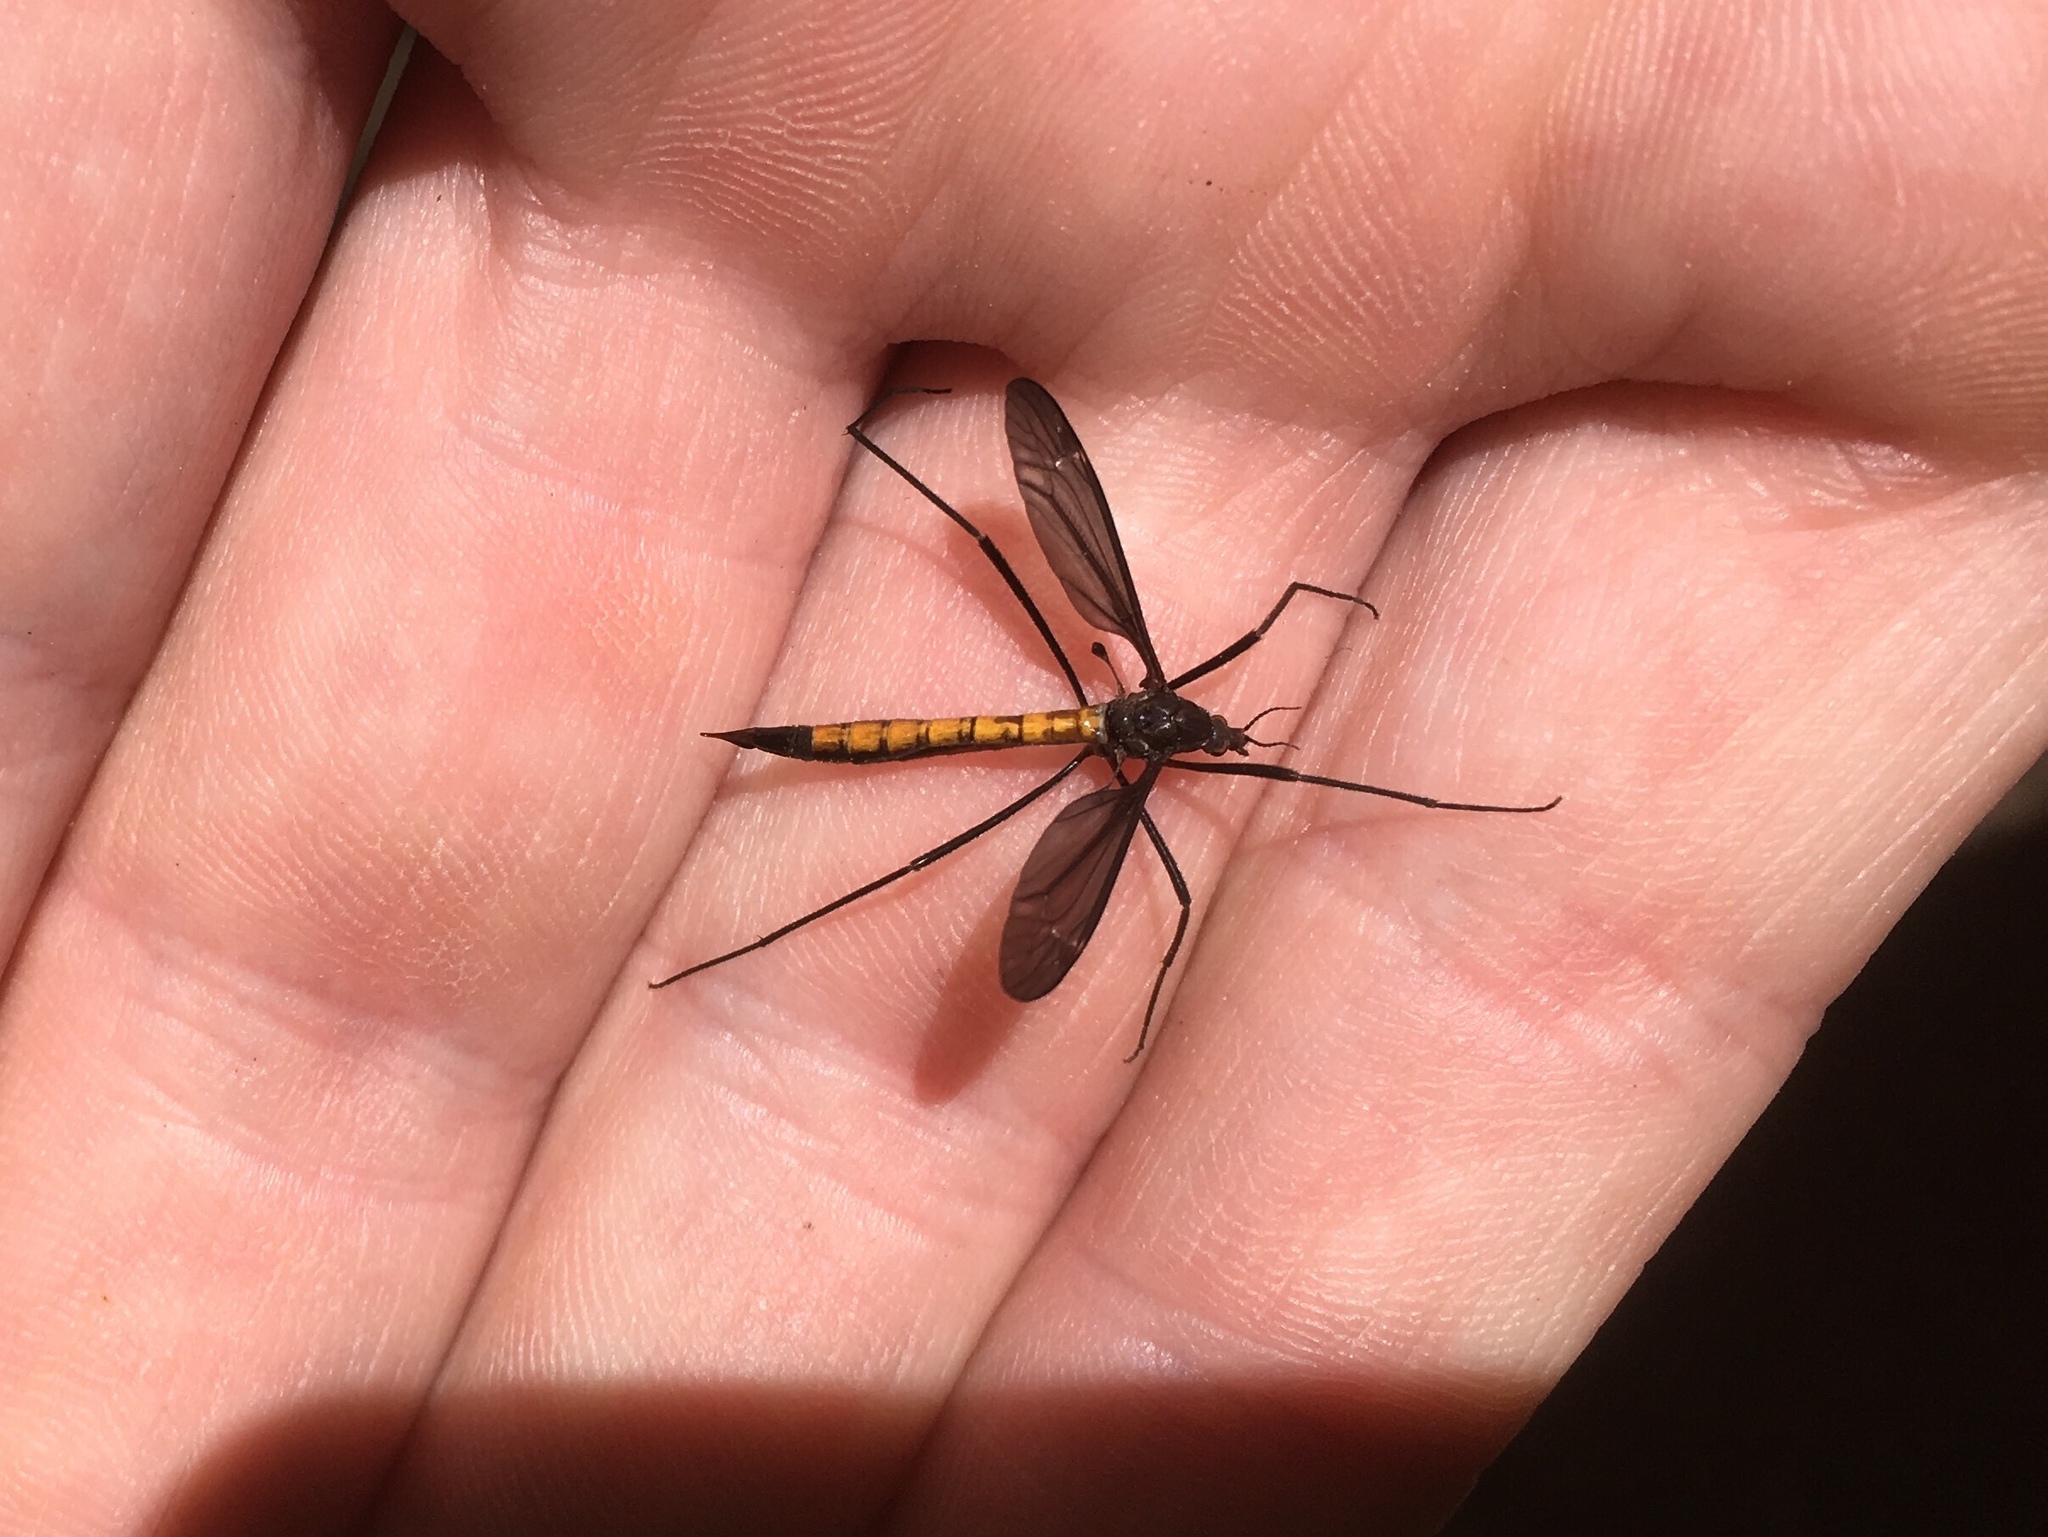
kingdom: Animalia
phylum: Arthropoda
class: Insecta
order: Diptera
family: Tipulidae
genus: Tipula
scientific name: Tipula disjuncta
